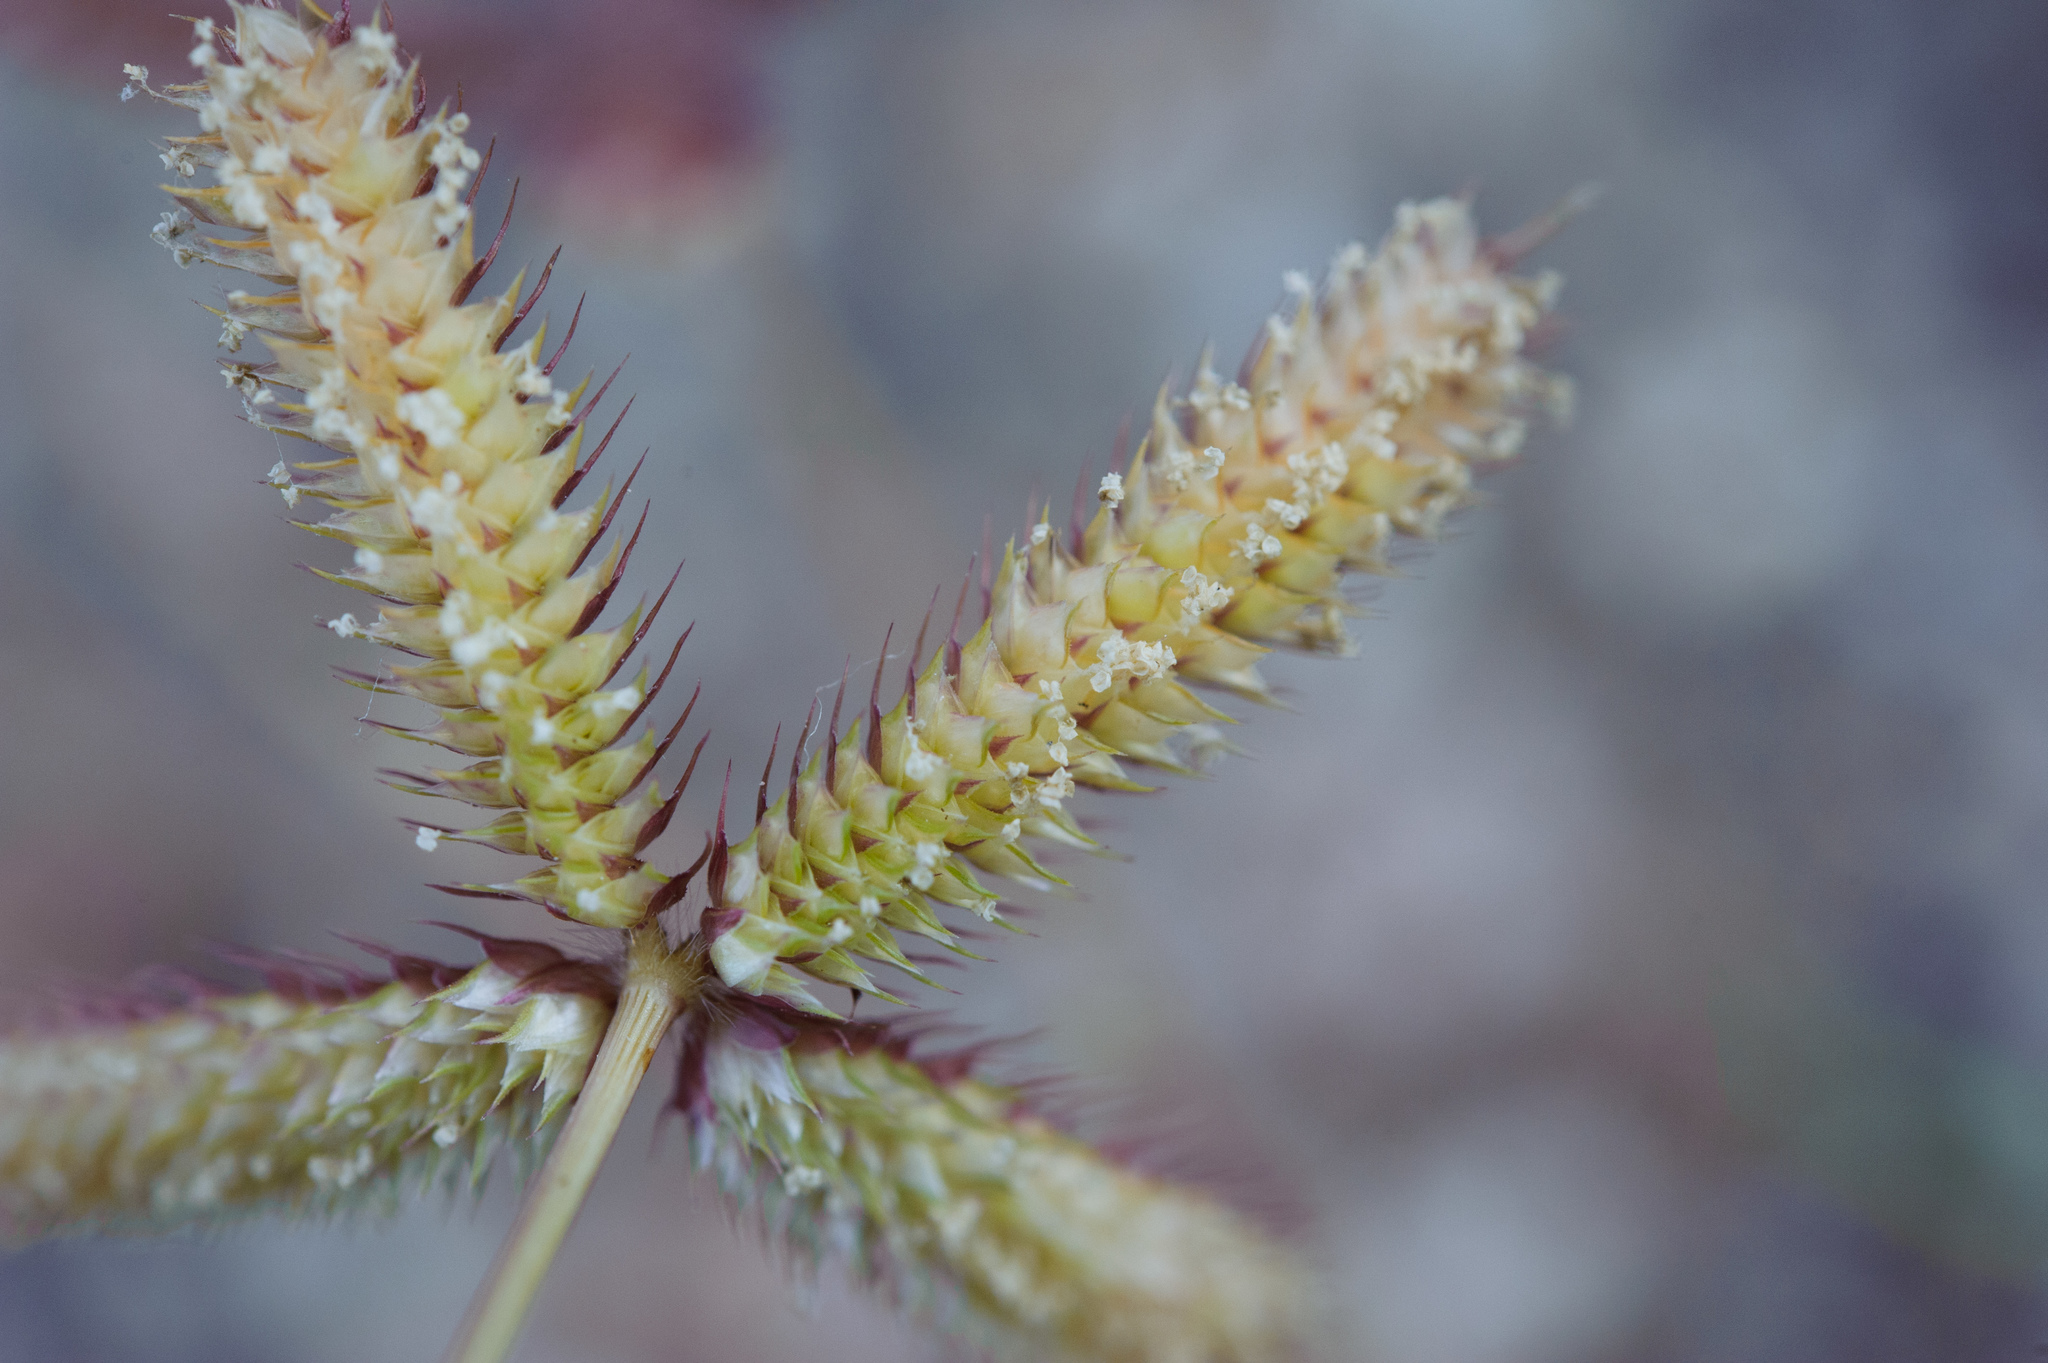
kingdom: Plantae
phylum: Tracheophyta
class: Liliopsida
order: Poales
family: Poaceae
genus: Dactyloctenium
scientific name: Dactyloctenium aegyptium
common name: Egyptian grass
